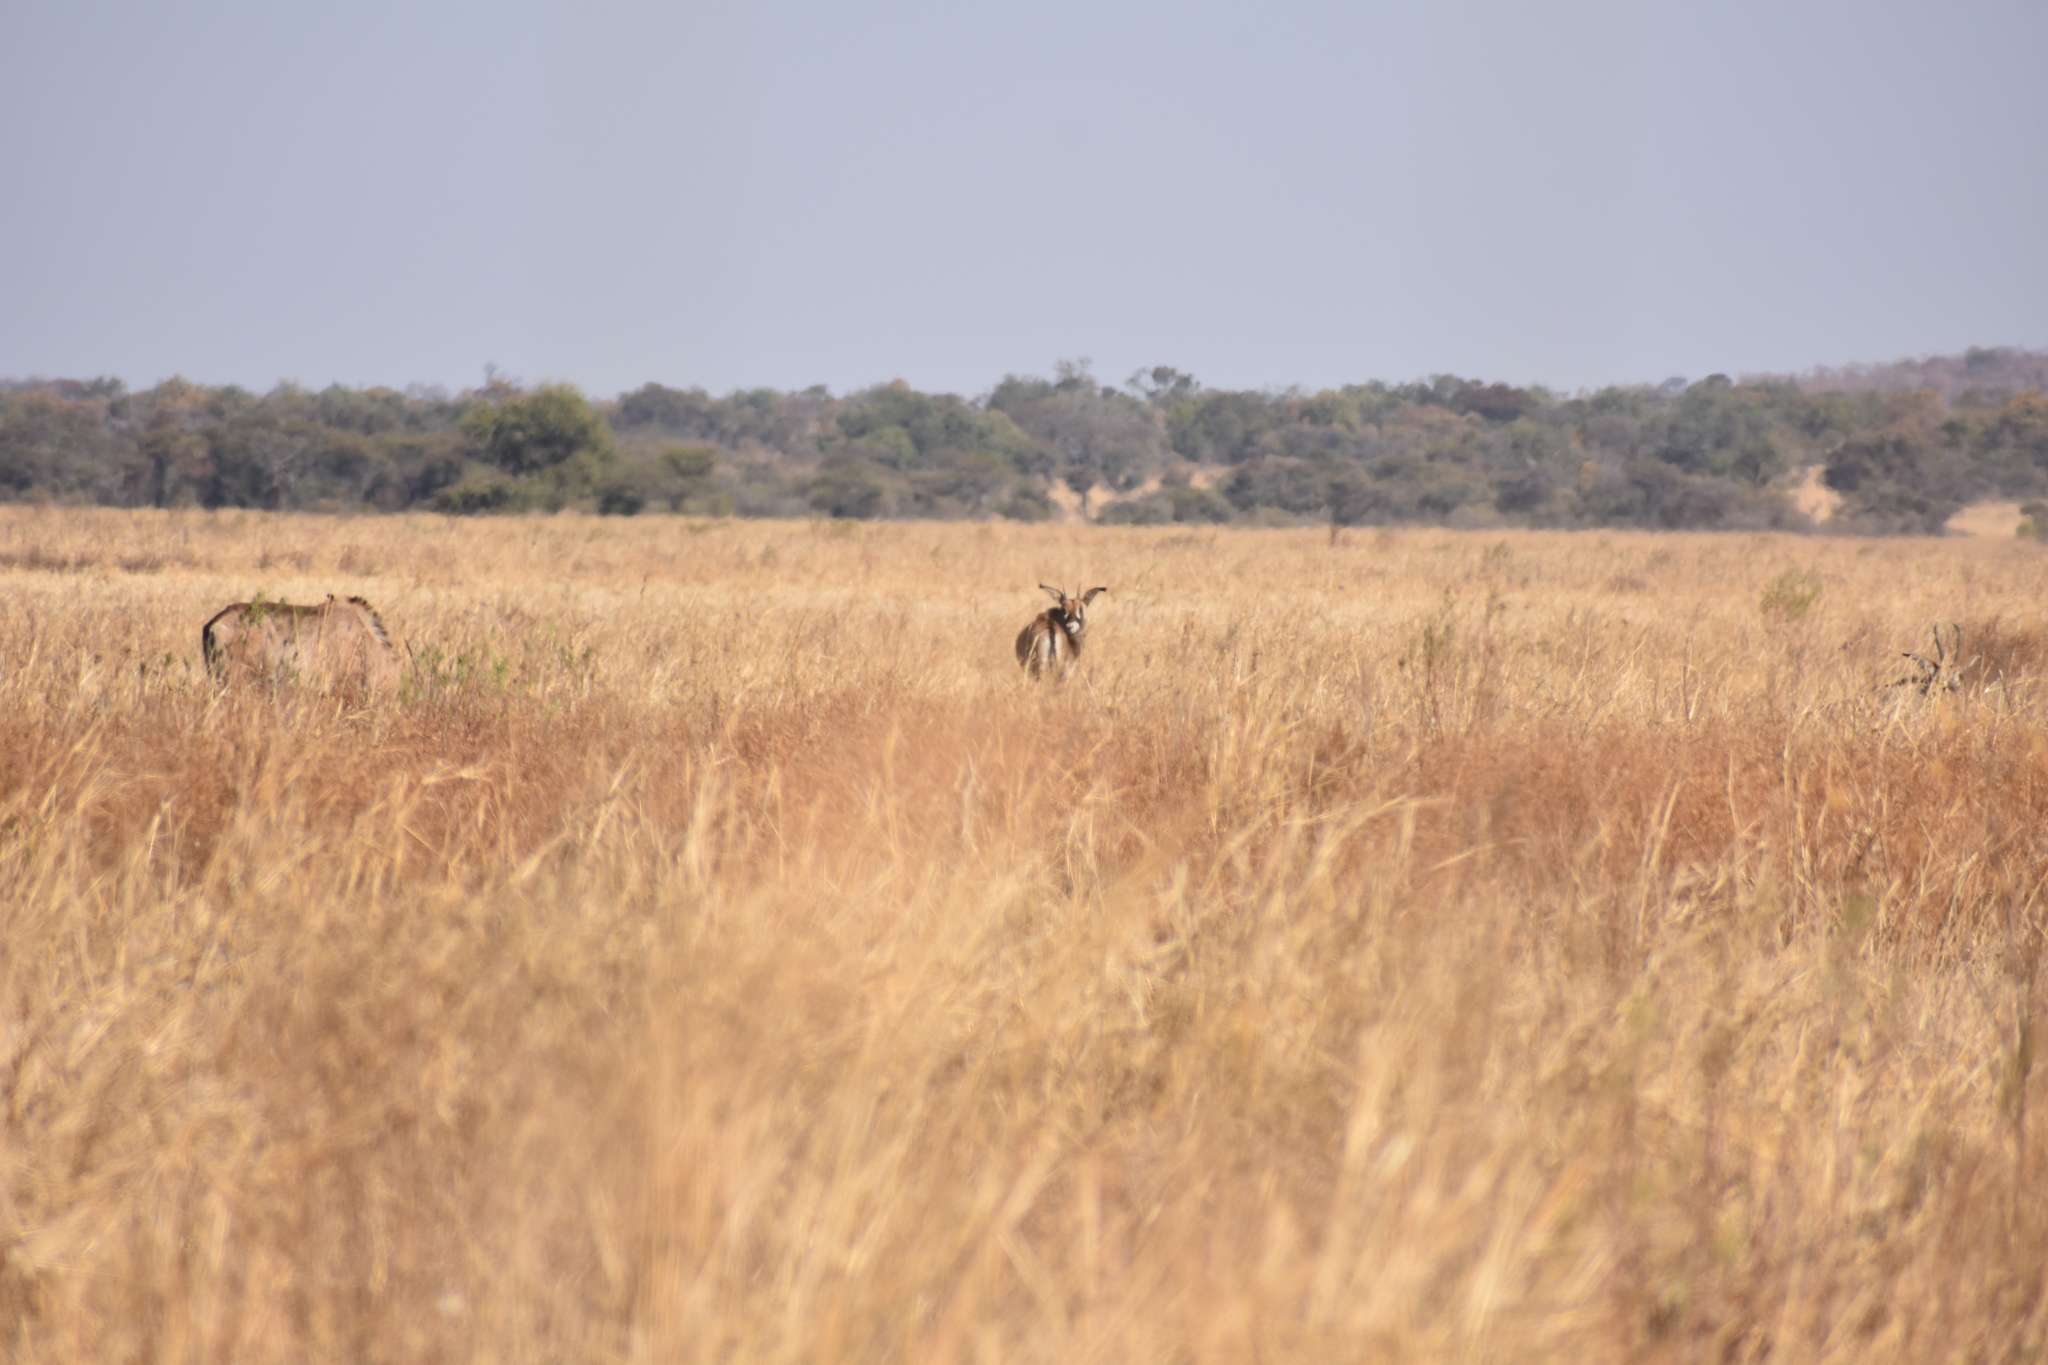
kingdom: Animalia
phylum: Chordata
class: Mammalia
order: Artiodactyla
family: Bovidae
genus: Hippotragus
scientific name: Hippotragus equinus
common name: Roan antelope
